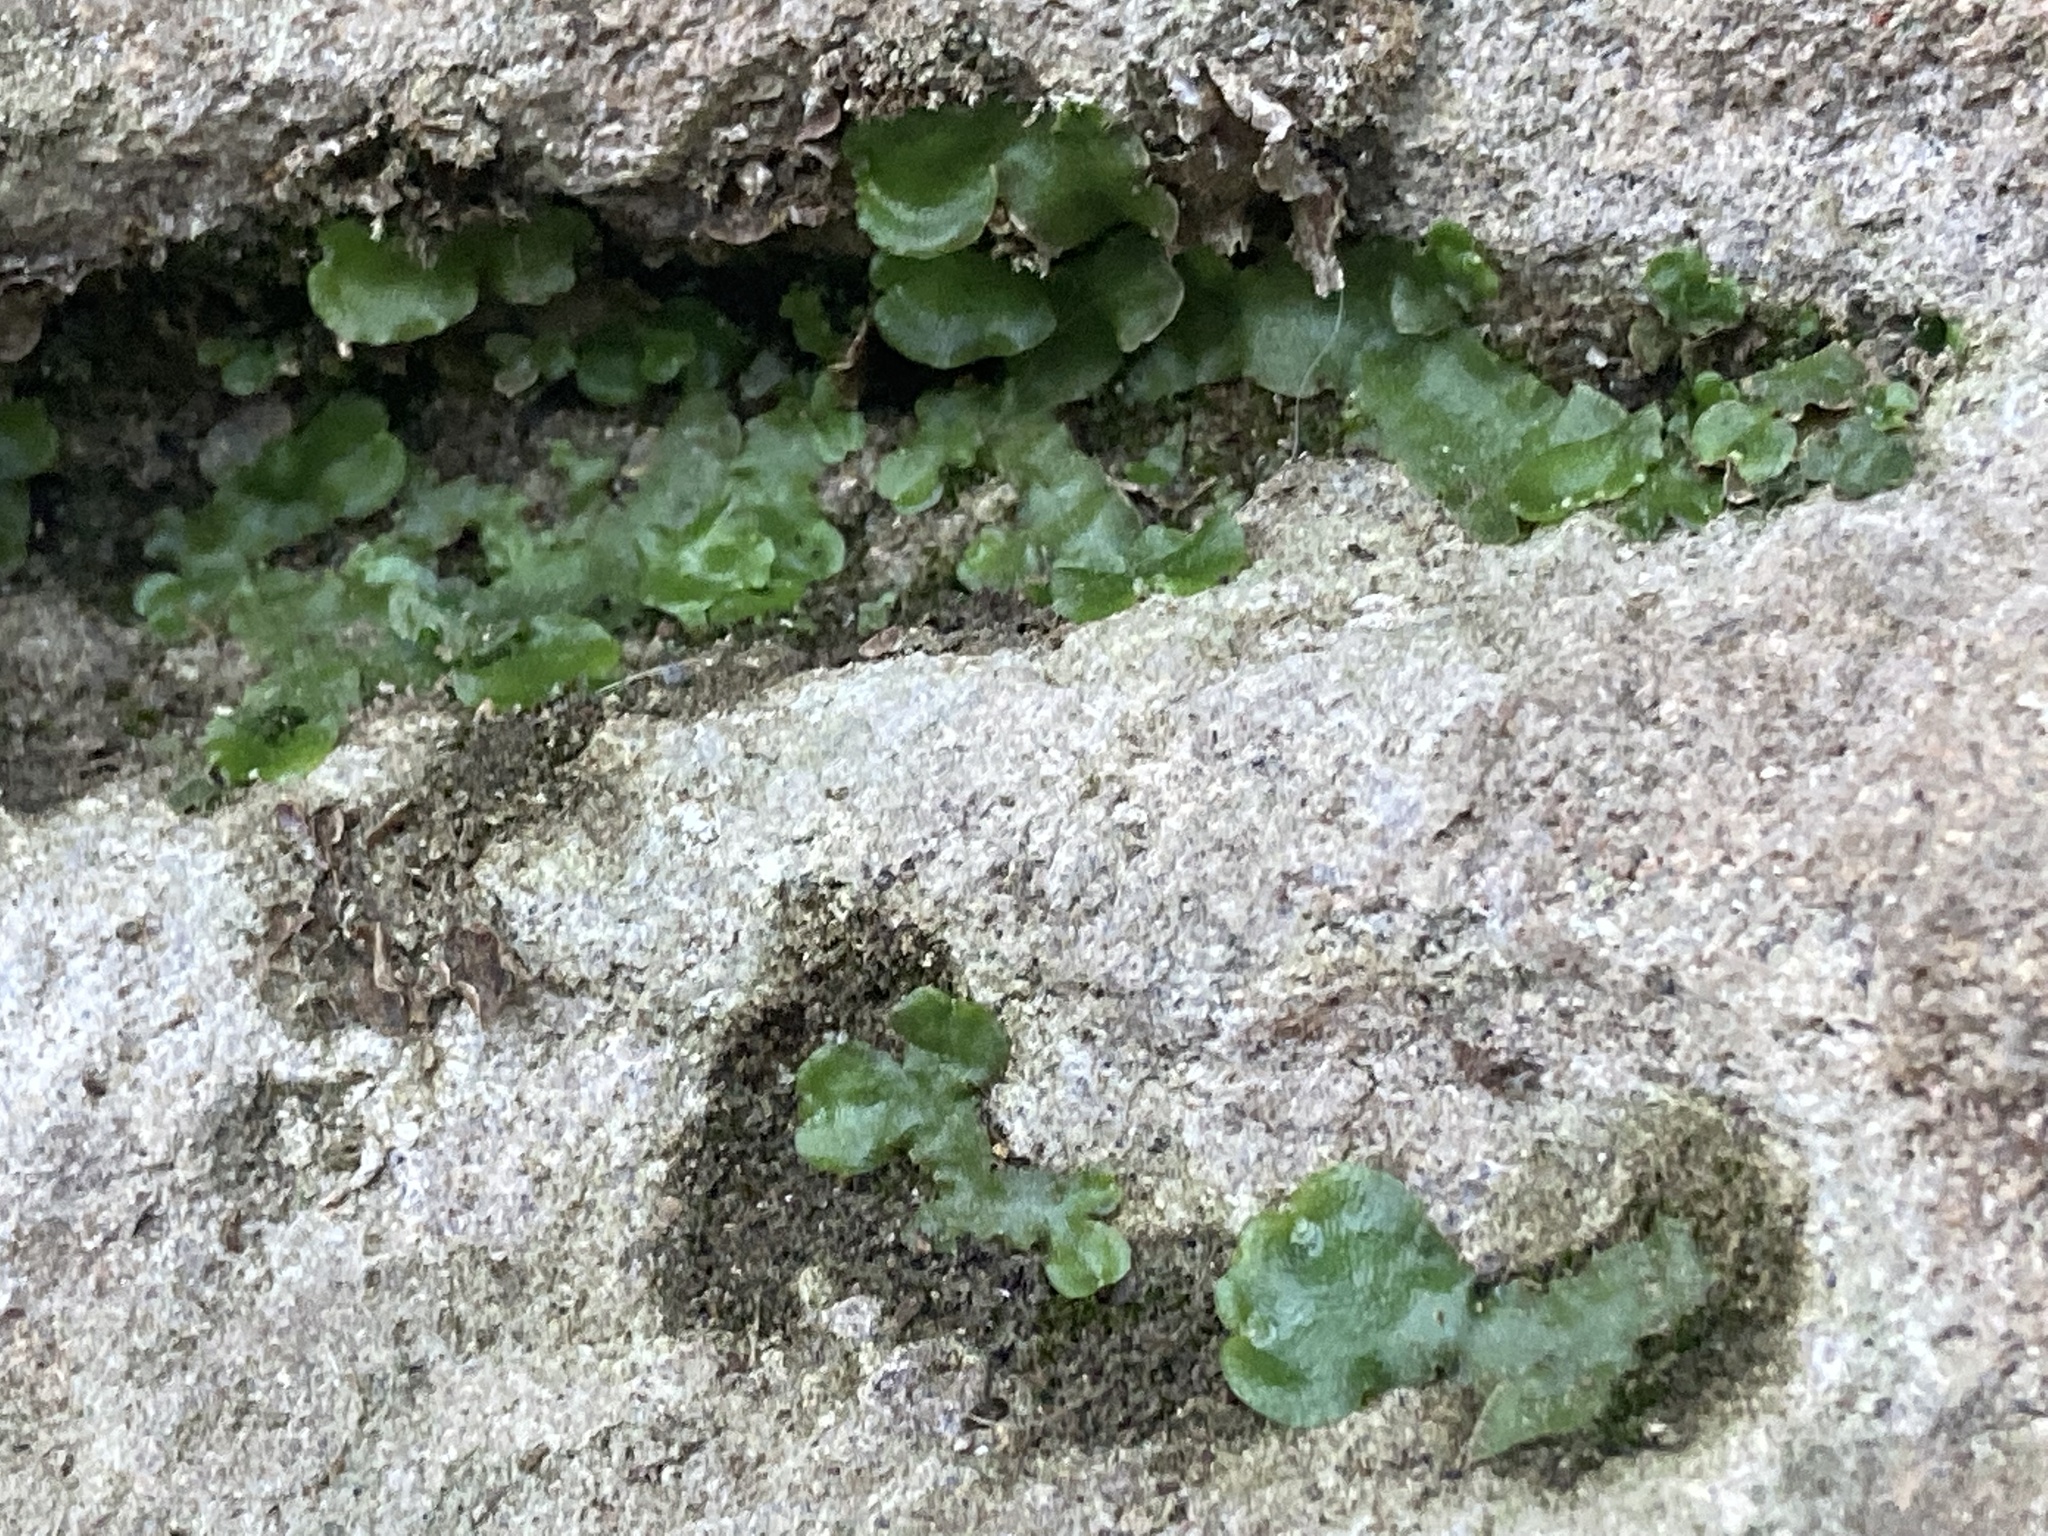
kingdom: Plantae
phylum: Marchantiophyta
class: Marchantiopsida
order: Lunulariales
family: Lunulariaceae
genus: Lunularia
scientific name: Lunularia cruciata
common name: Crescent-cup liverwort
